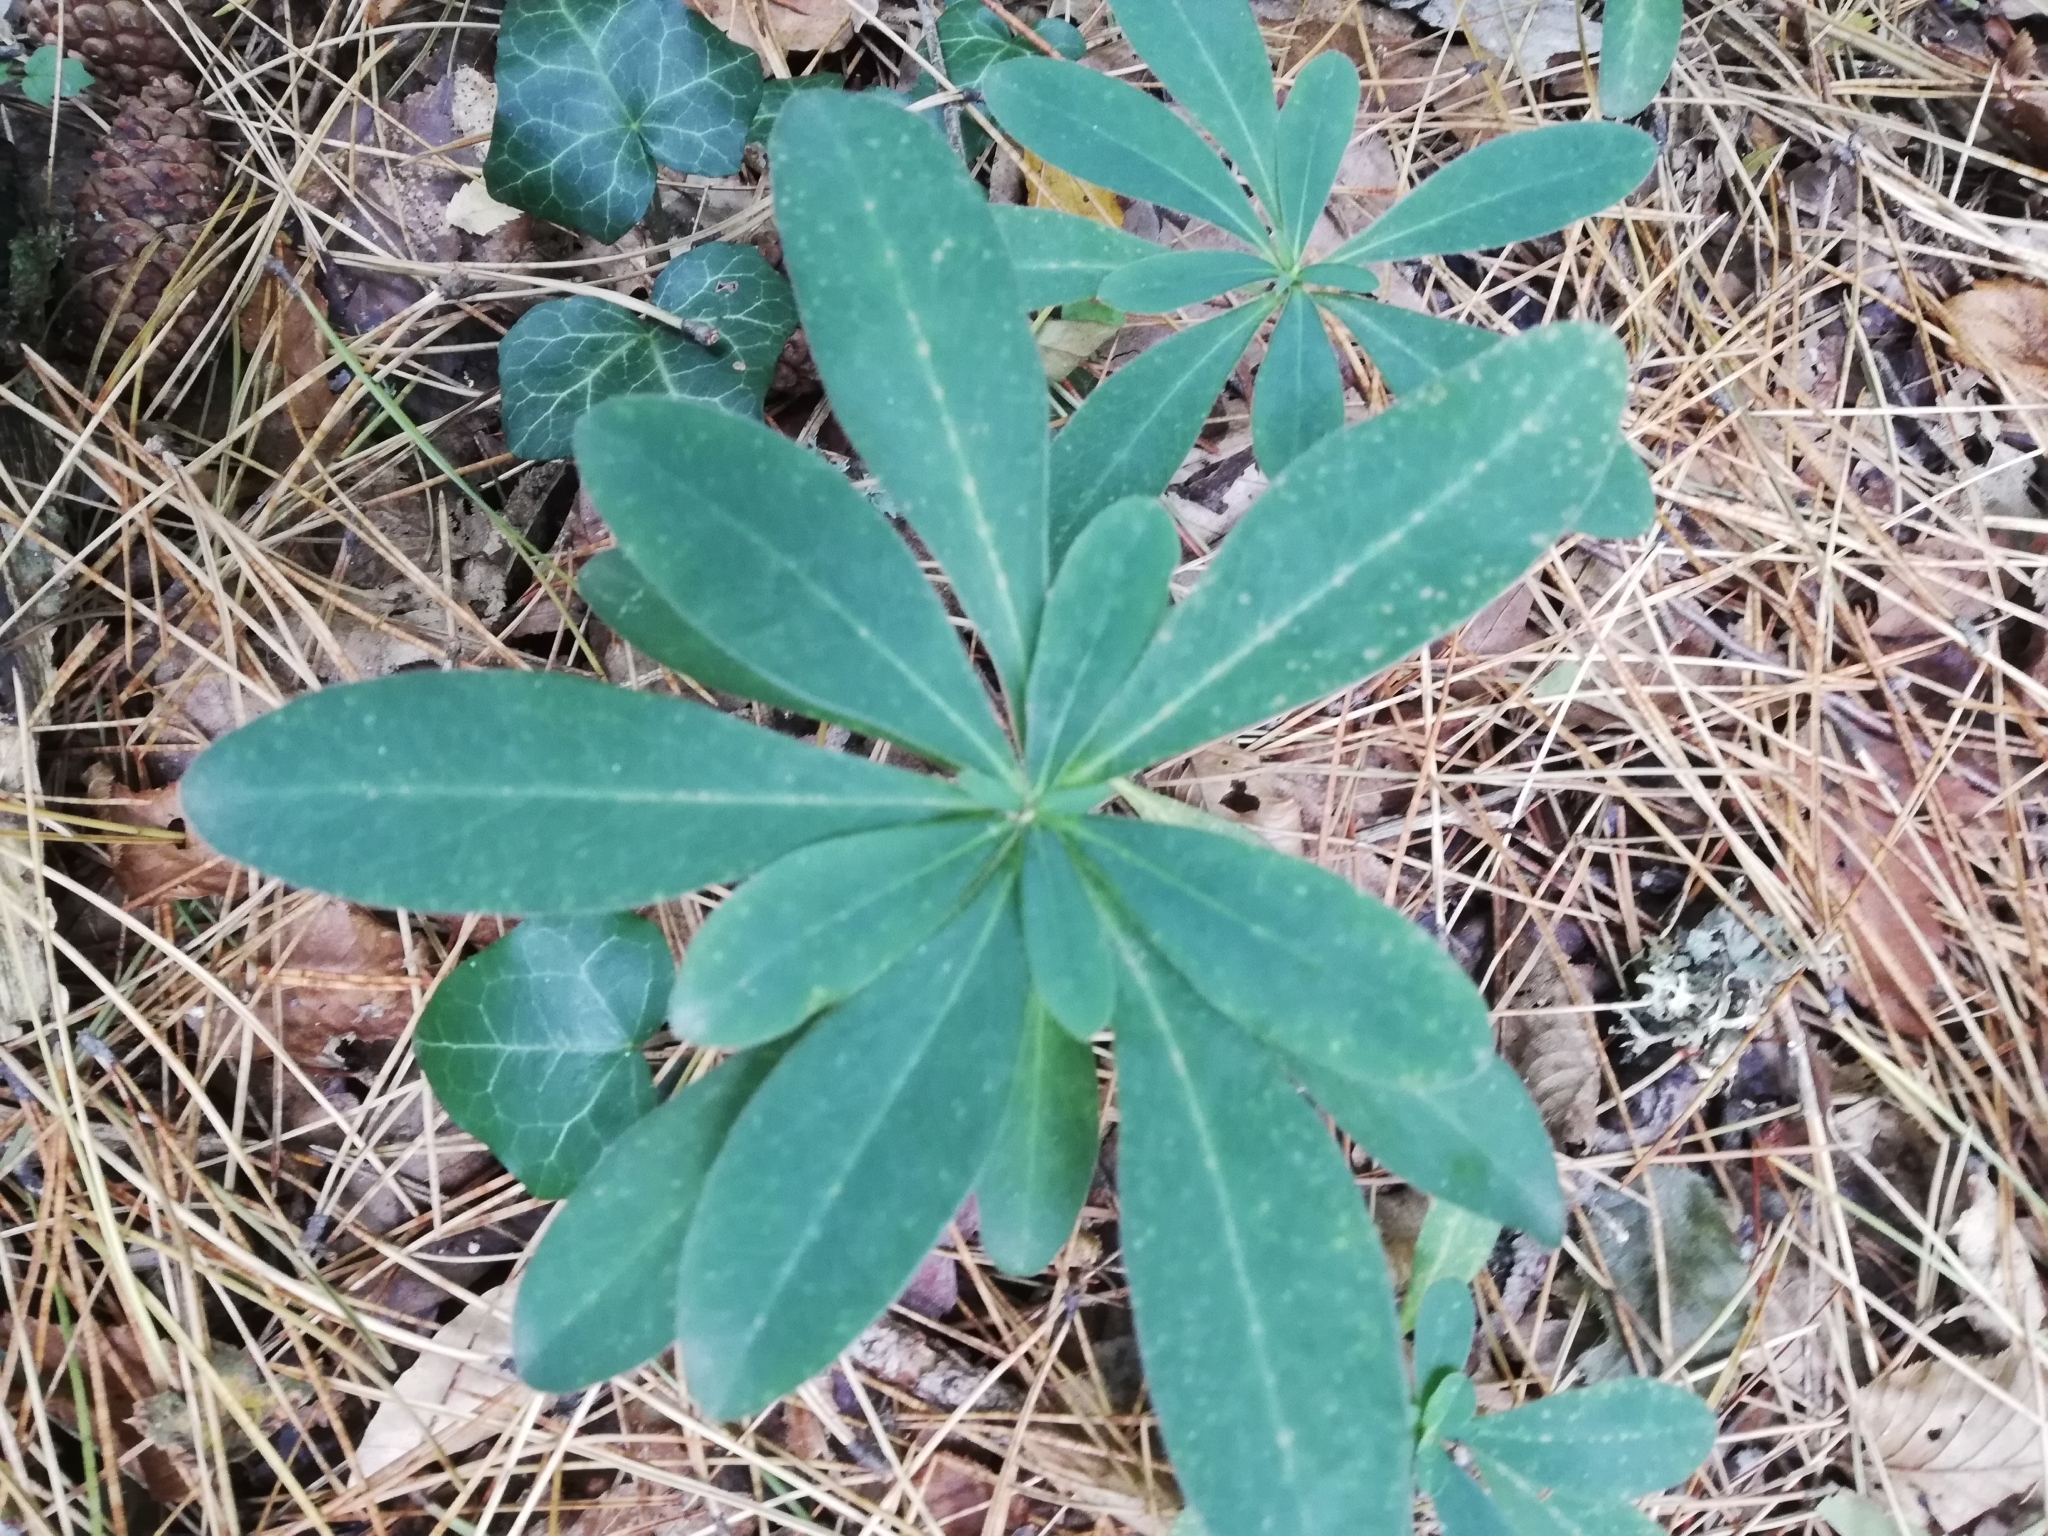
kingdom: Plantae
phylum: Tracheophyta
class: Magnoliopsida
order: Malpighiales
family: Euphorbiaceae
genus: Euphorbia
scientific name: Euphorbia amygdaloides
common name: Wood spurge
